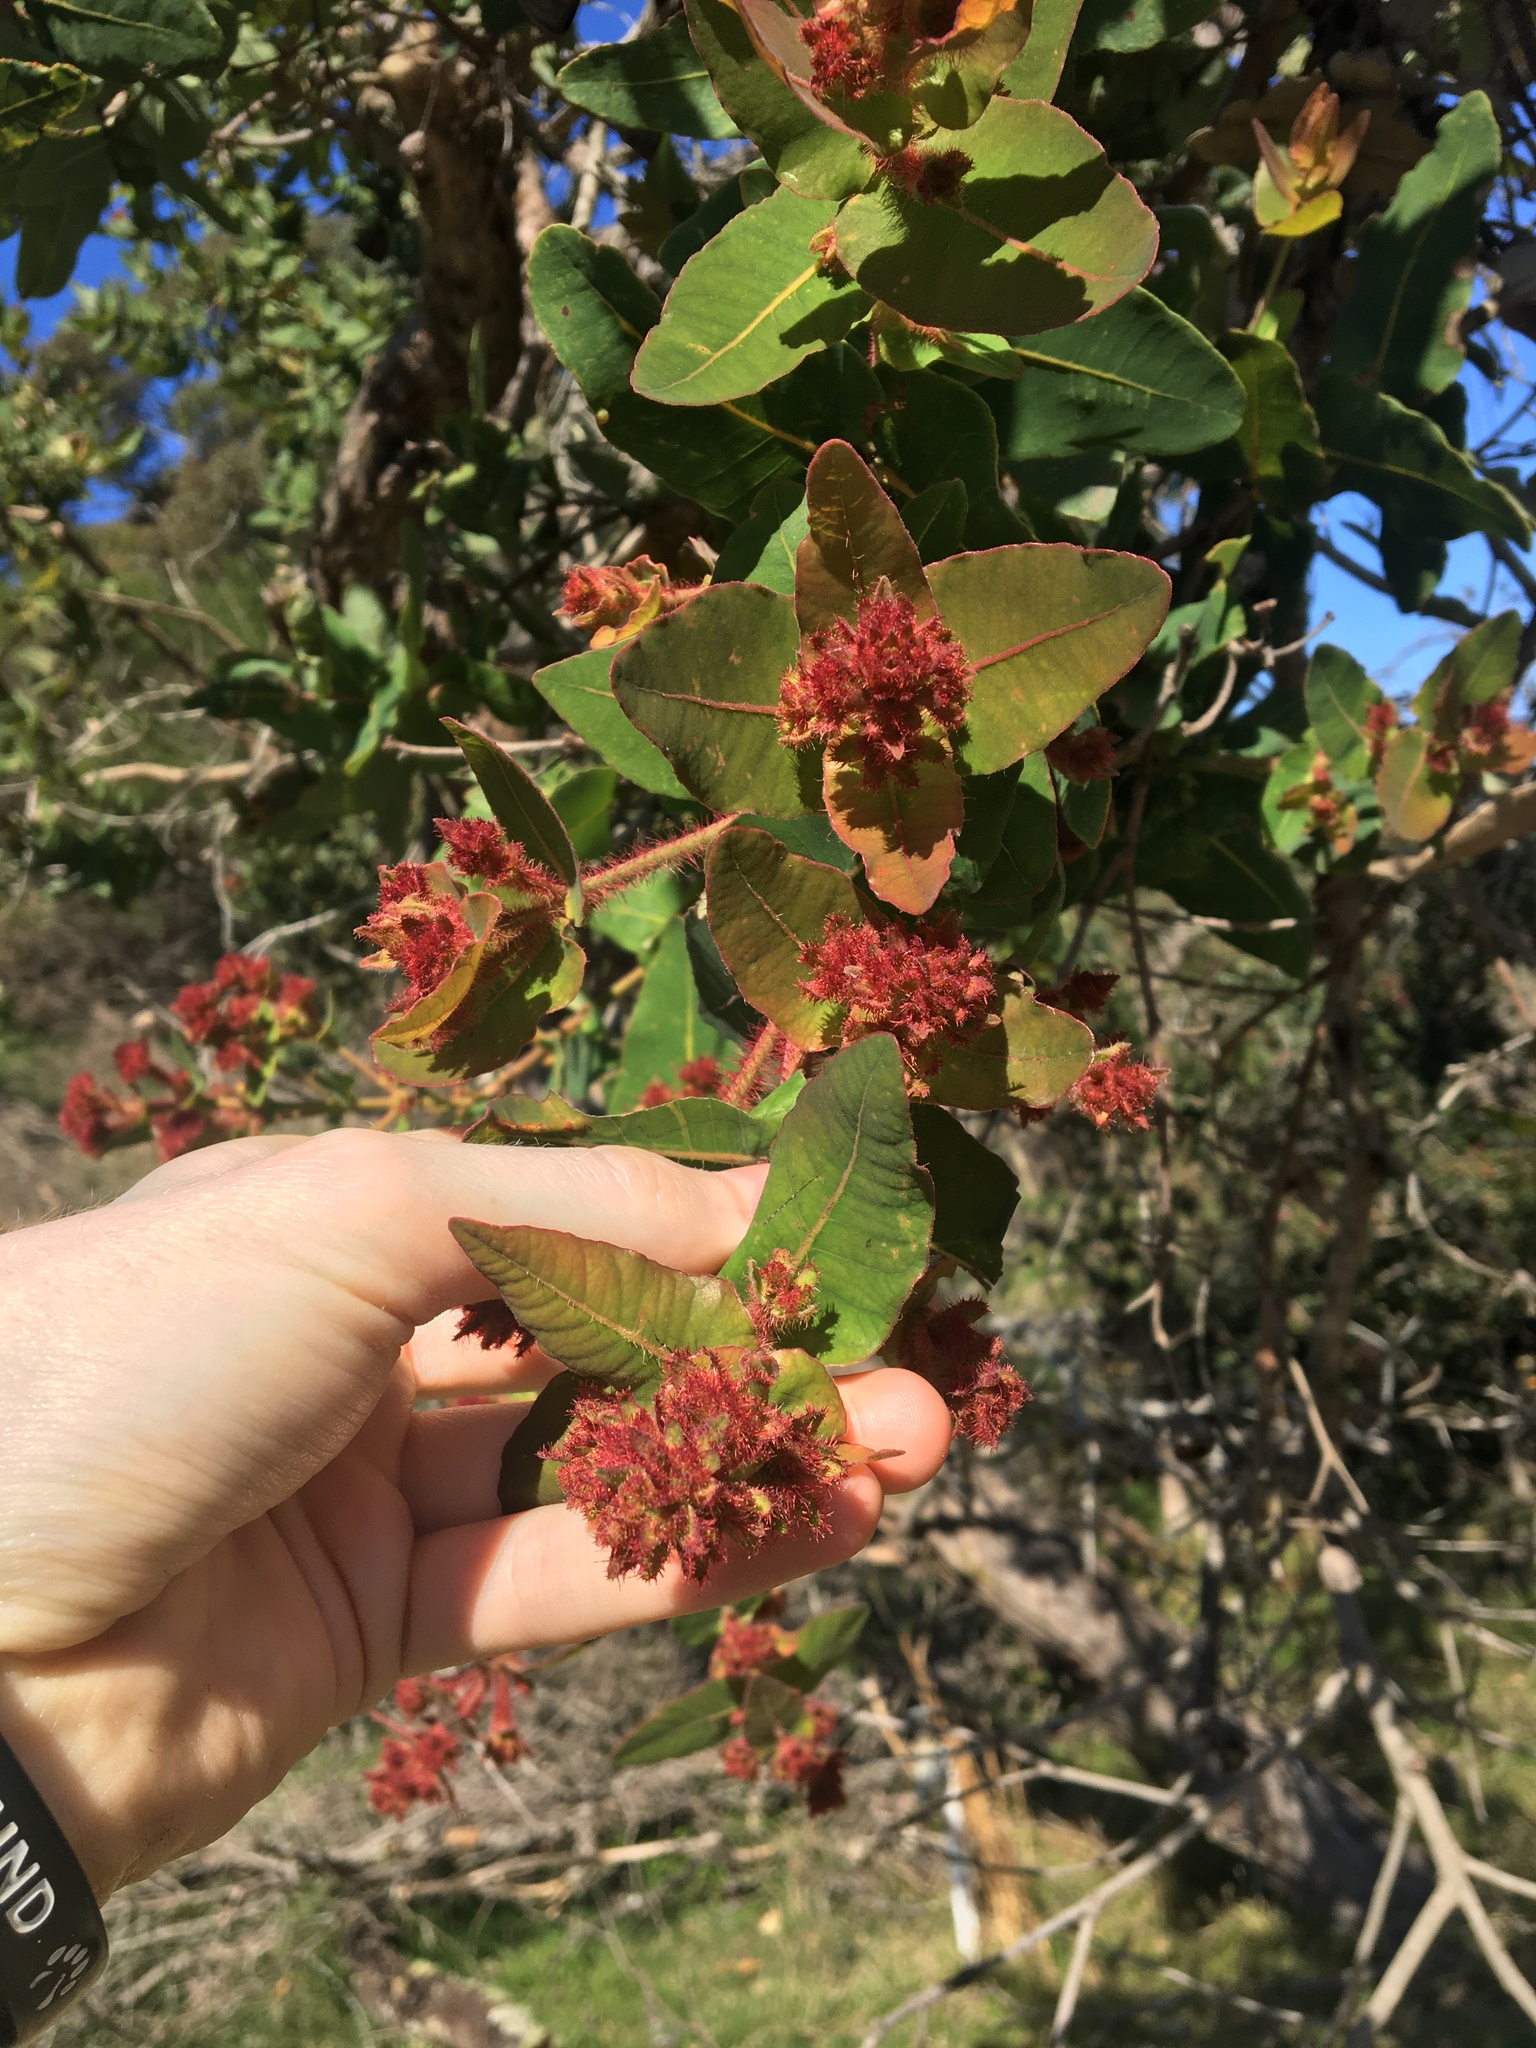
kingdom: Plantae
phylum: Tracheophyta
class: Magnoliopsida
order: Myrtales
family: Myrtaceae
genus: Angophora
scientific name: Angophora hispida
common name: Dwarf-apple
